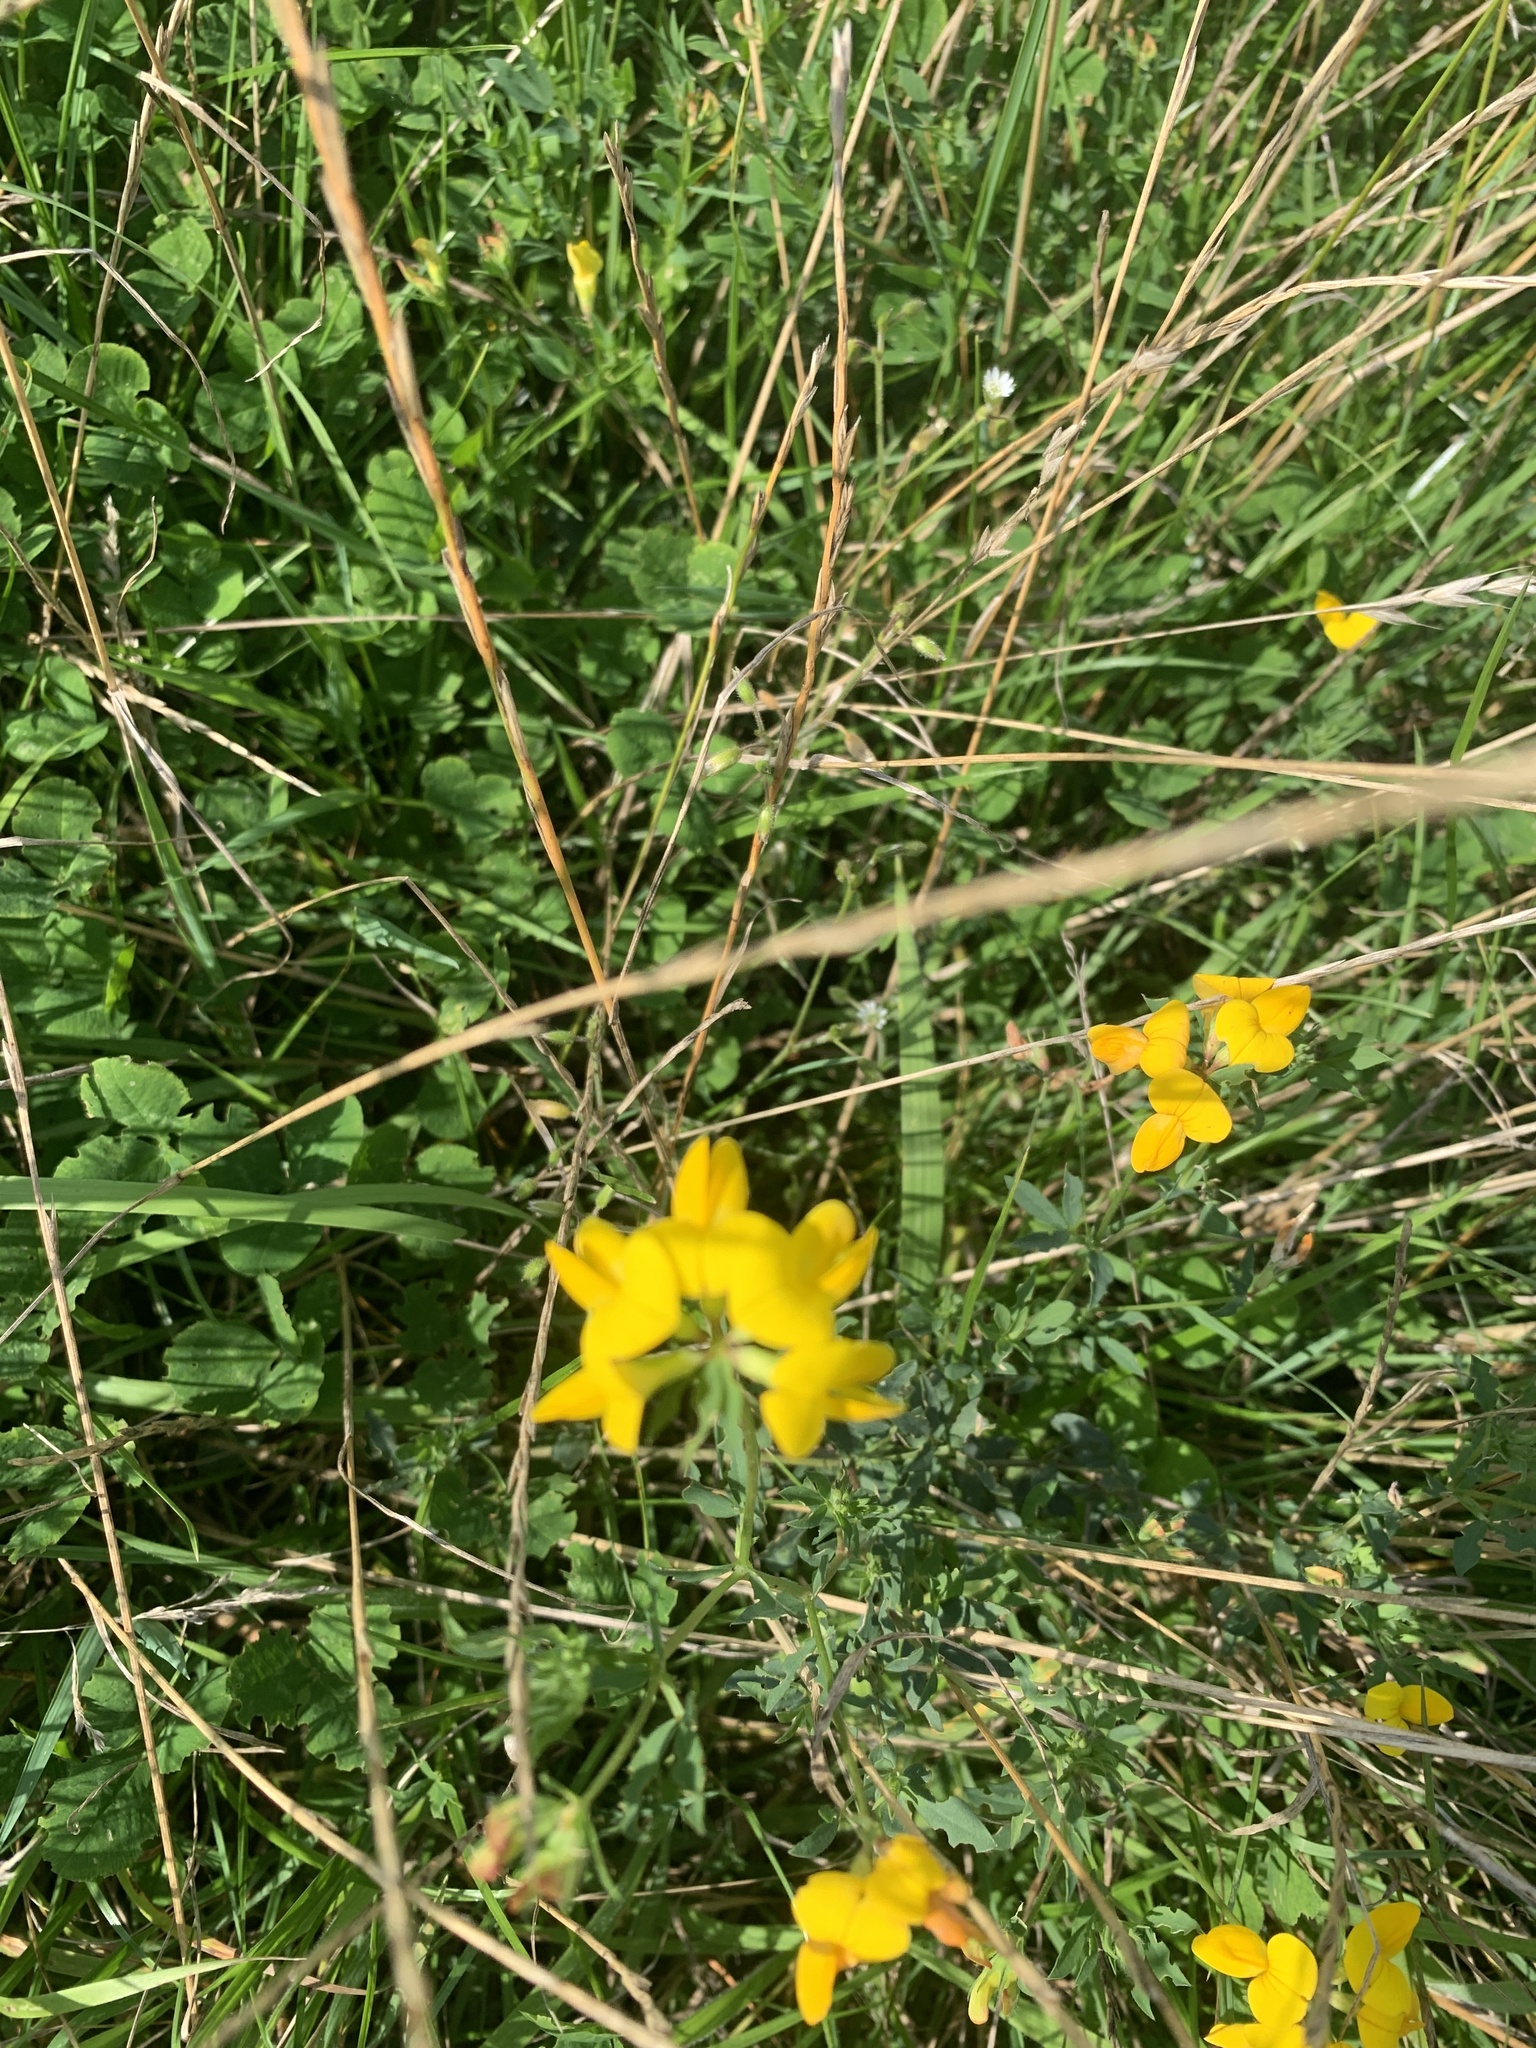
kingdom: Plantae
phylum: Tracheophyta
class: Magnoliopsida
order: Fabales
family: Fabaceae
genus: Lotus
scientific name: Lotus corniculatus
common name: Common bird's-foot-trefoil
